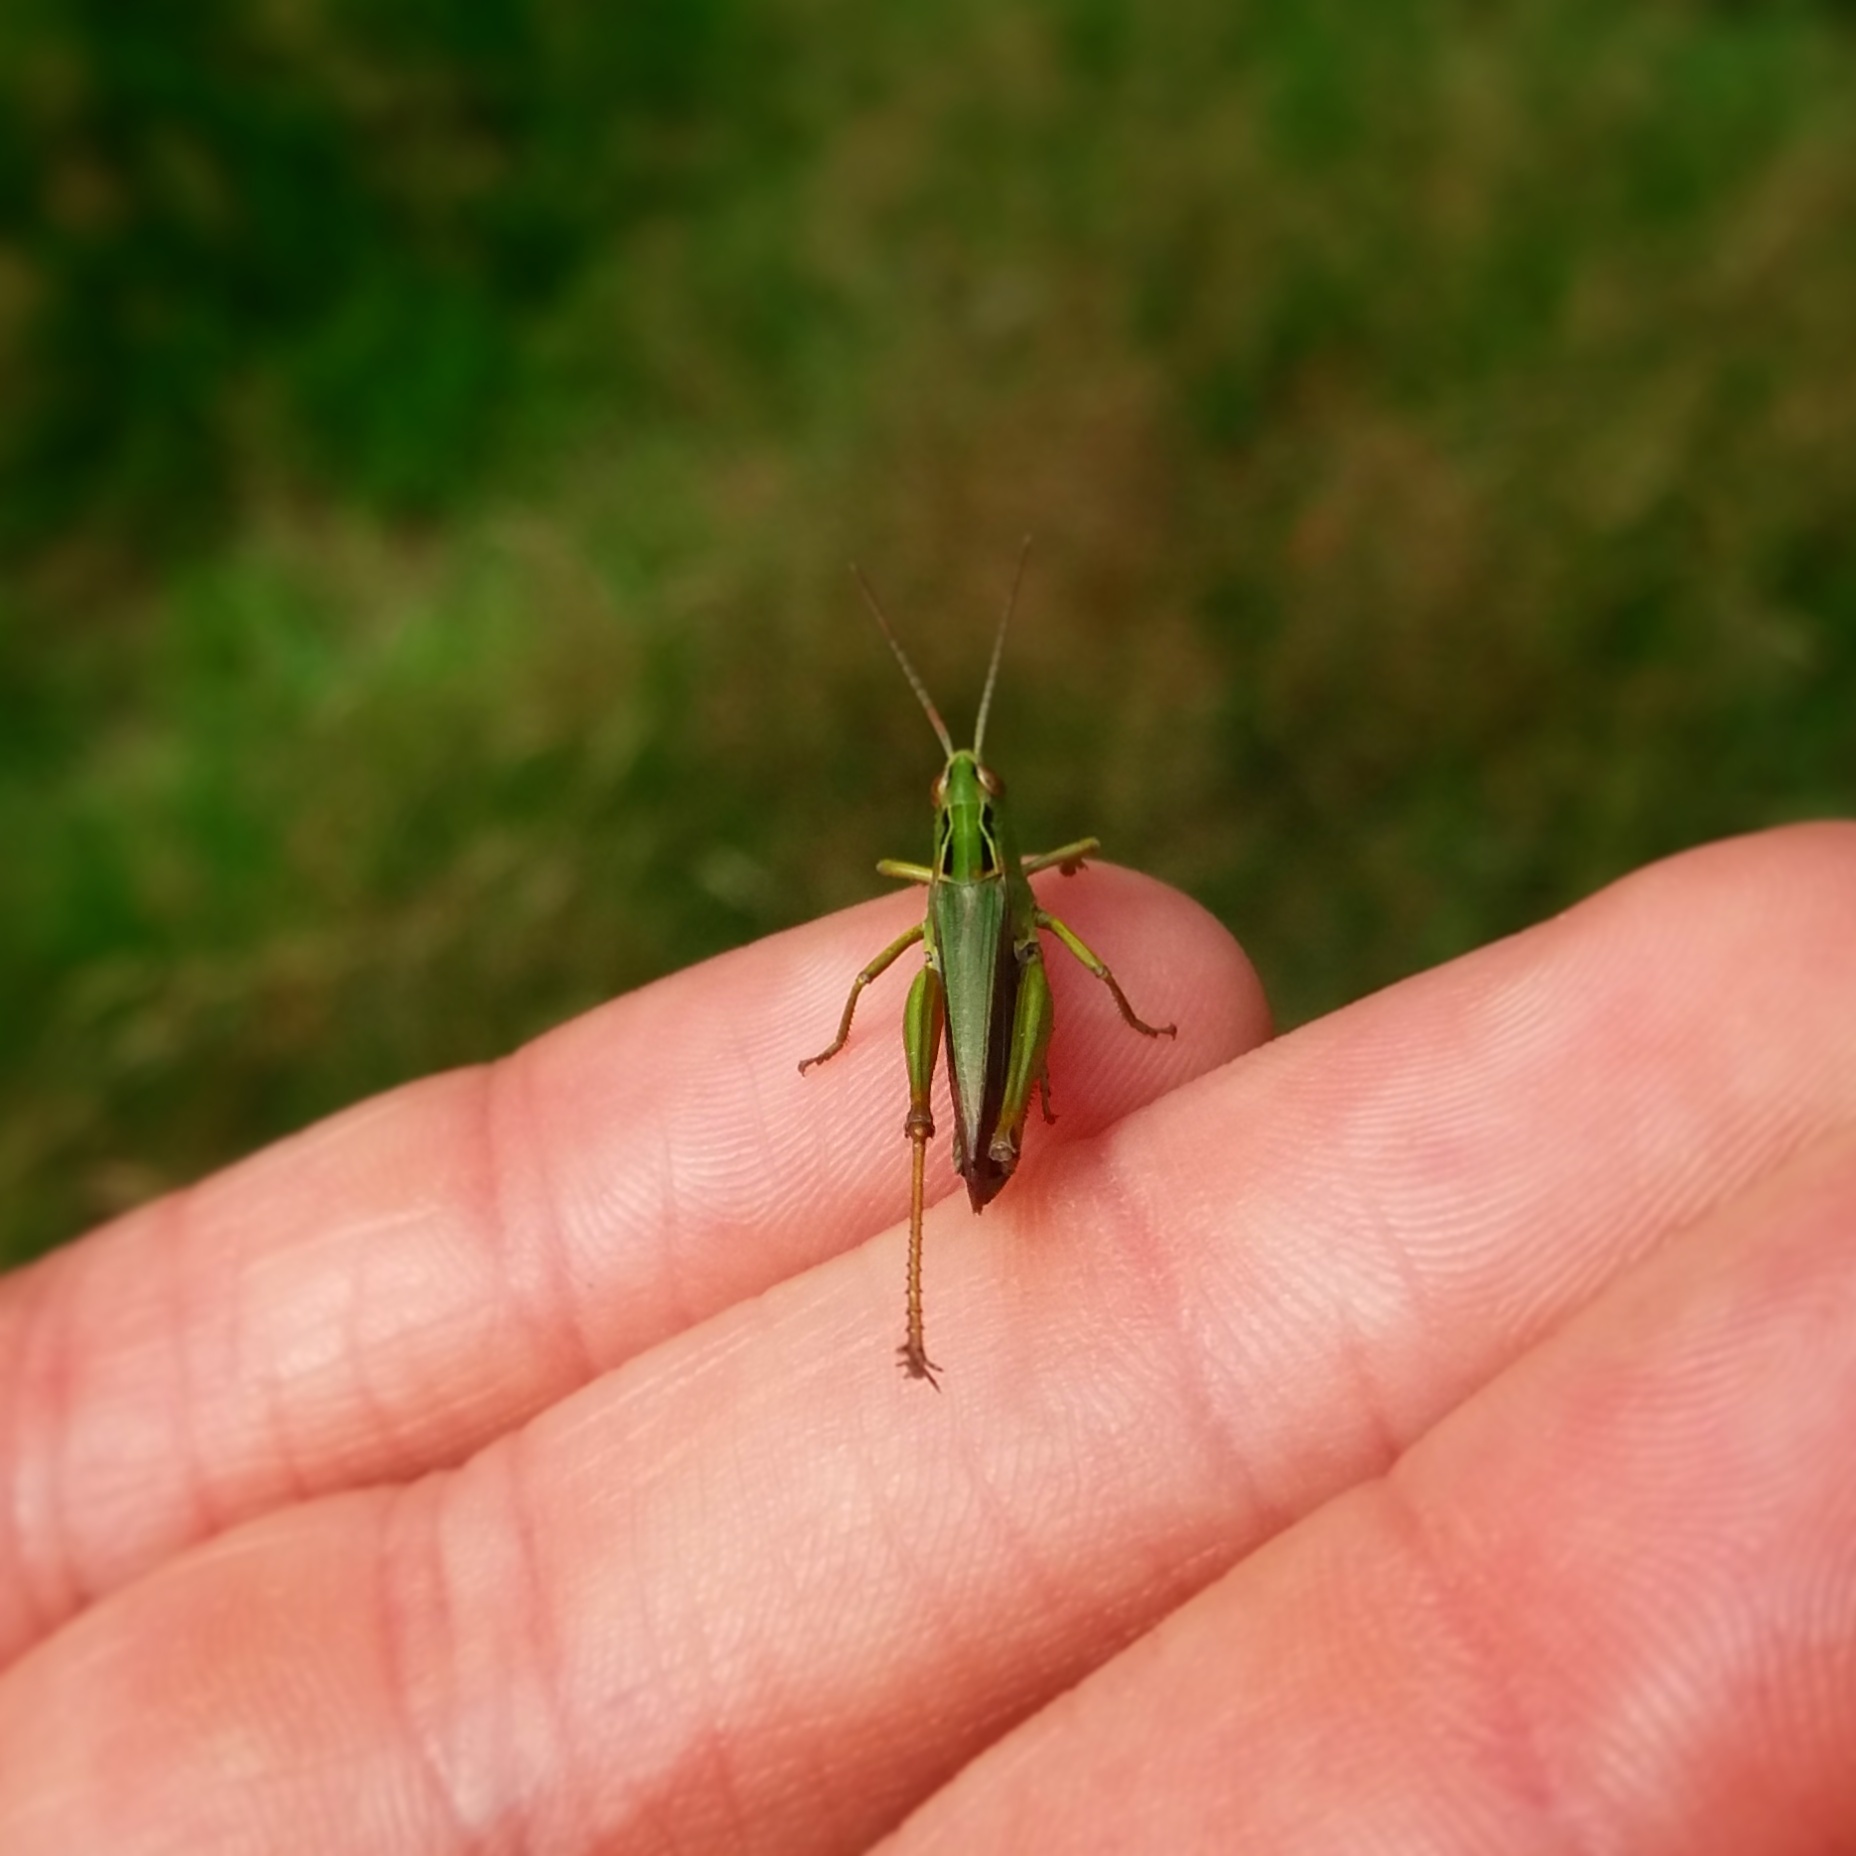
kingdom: Animalia
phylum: Arthropoda
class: Insecta
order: Orthoptera
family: Acrididae
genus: Omocestus
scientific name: Omocestus viridulus
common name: Common green grasshopper
